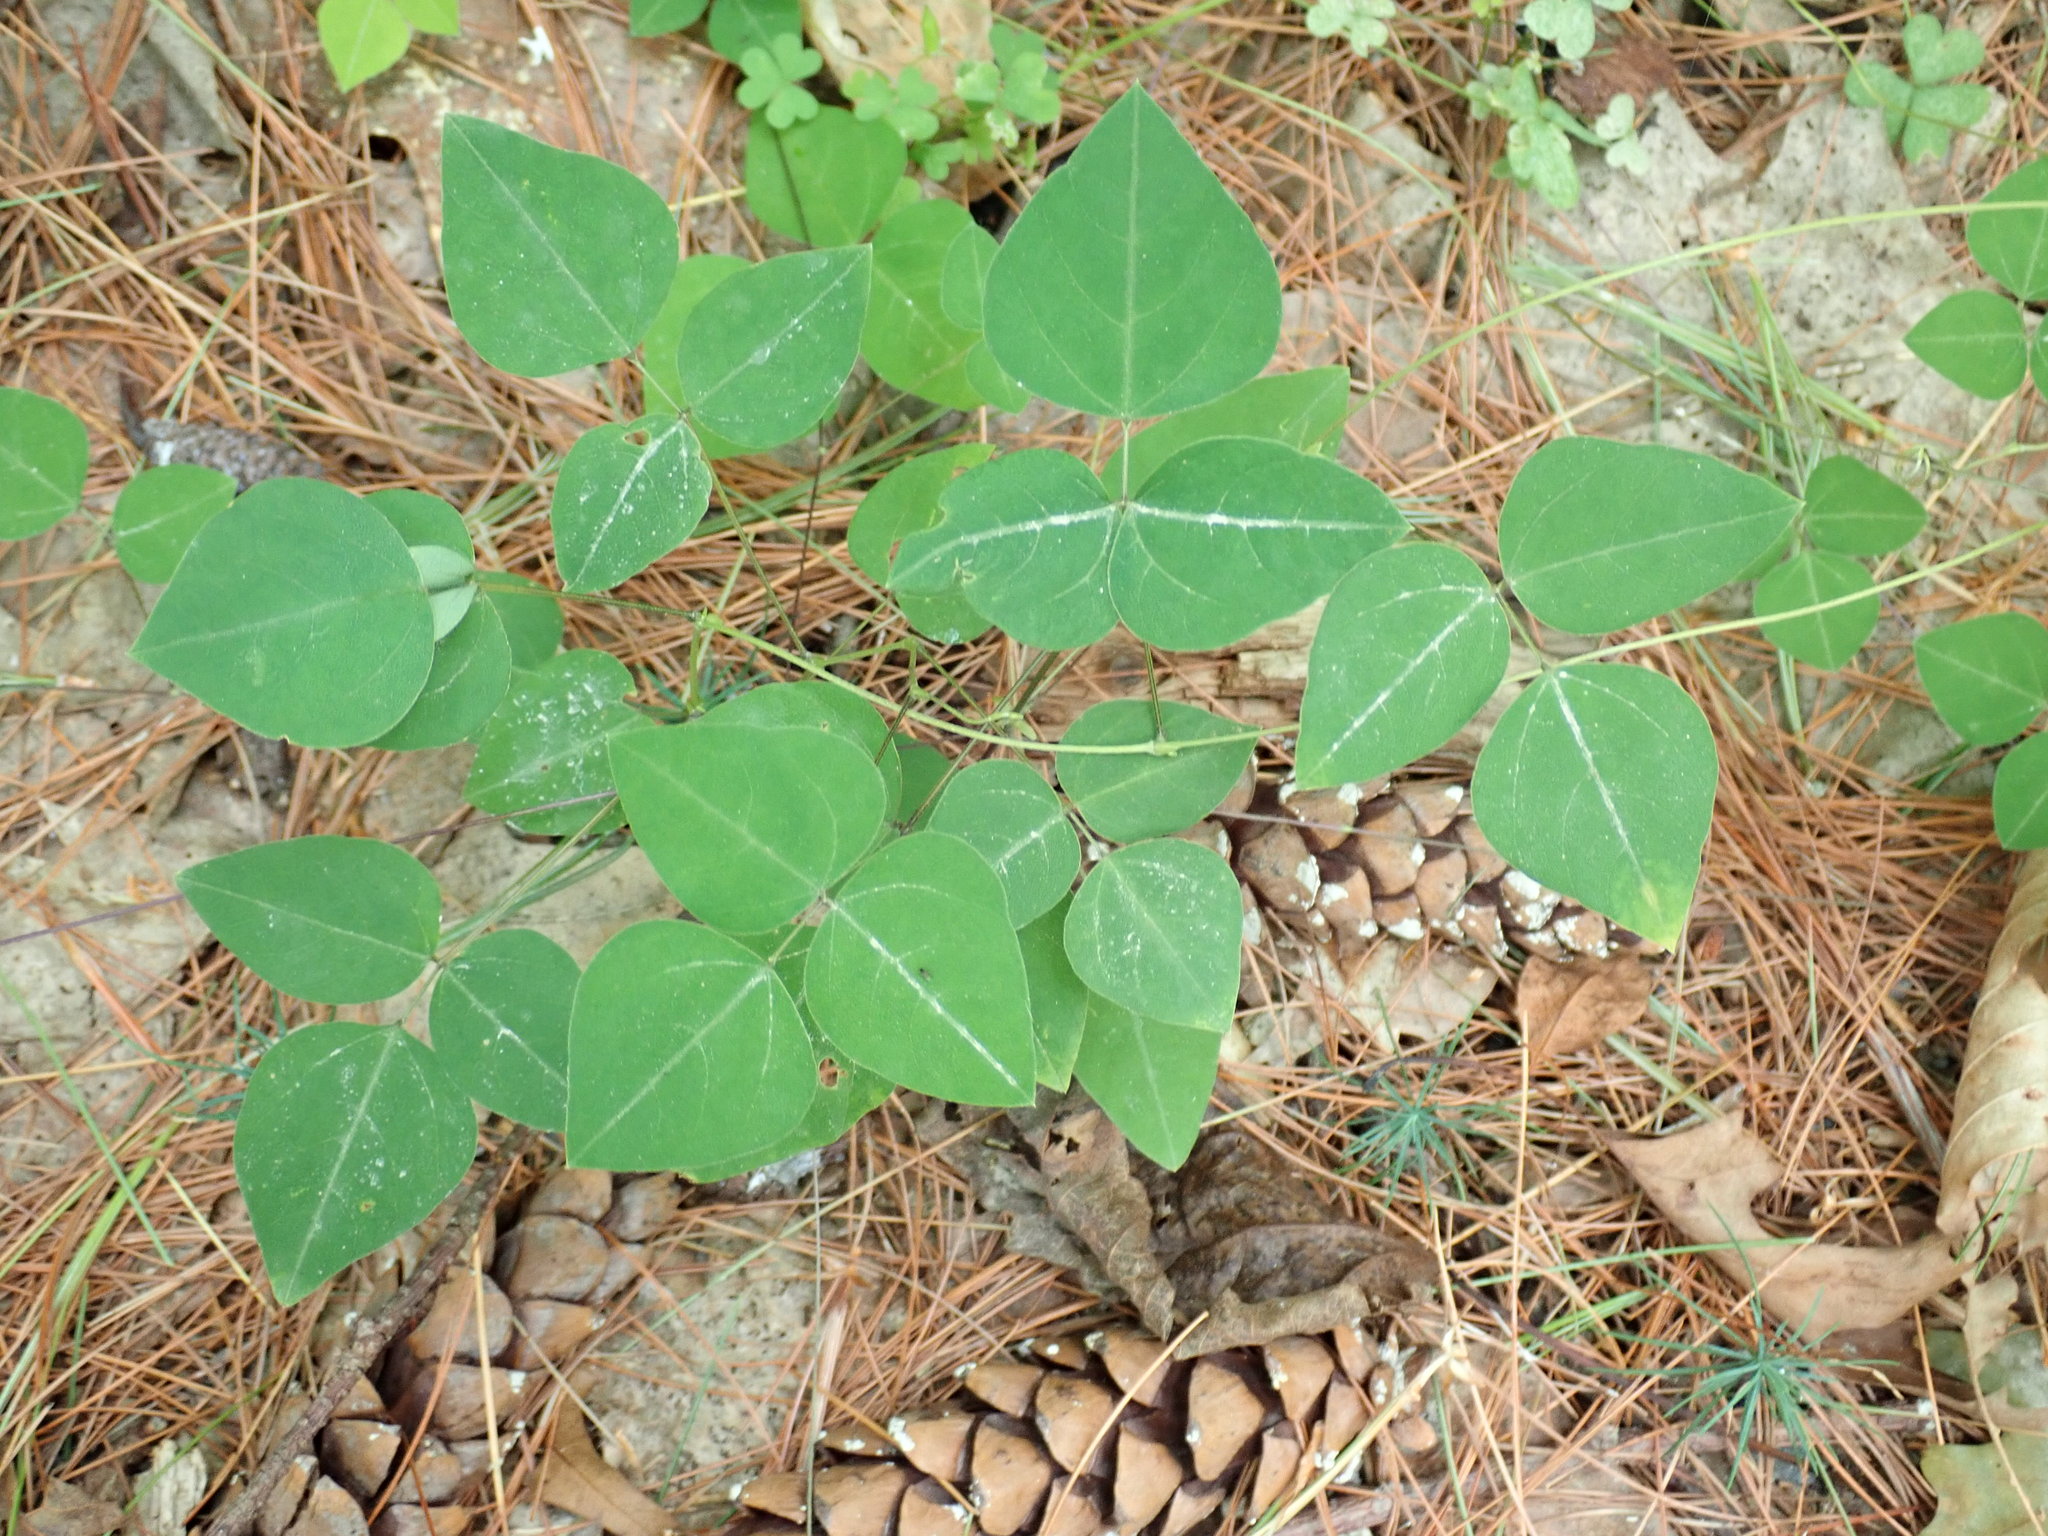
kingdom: Plantae
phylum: Tracheophyta
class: Magnoliopsida
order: Fabales
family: Fabaceae
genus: Amphicarpaea
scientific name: Amphicarpaea bracteata
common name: American hog peanut
